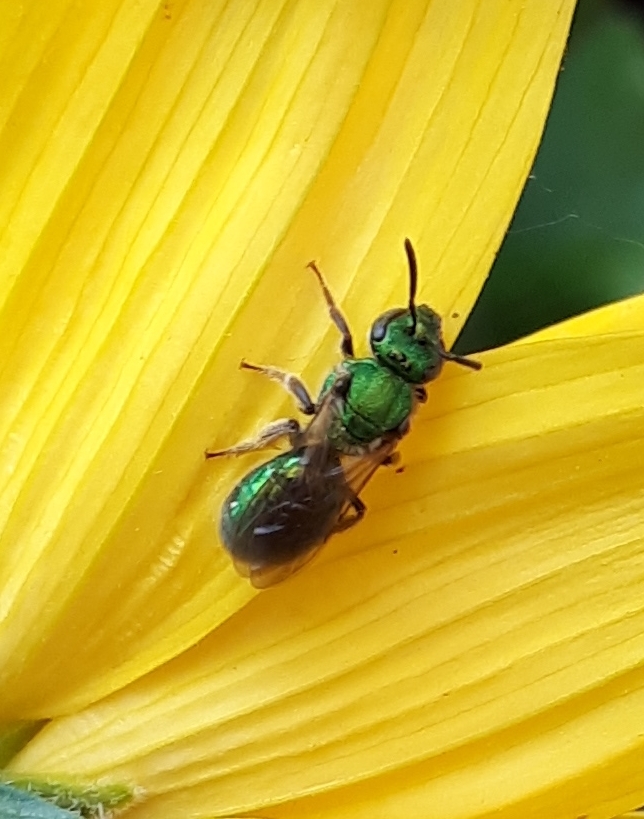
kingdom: Animalia
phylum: Arthropoda
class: Insecta
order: Hymenoptera
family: Halictidae
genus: Augochlorella
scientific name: Augochlorella aurata
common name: Golden sweat bee
